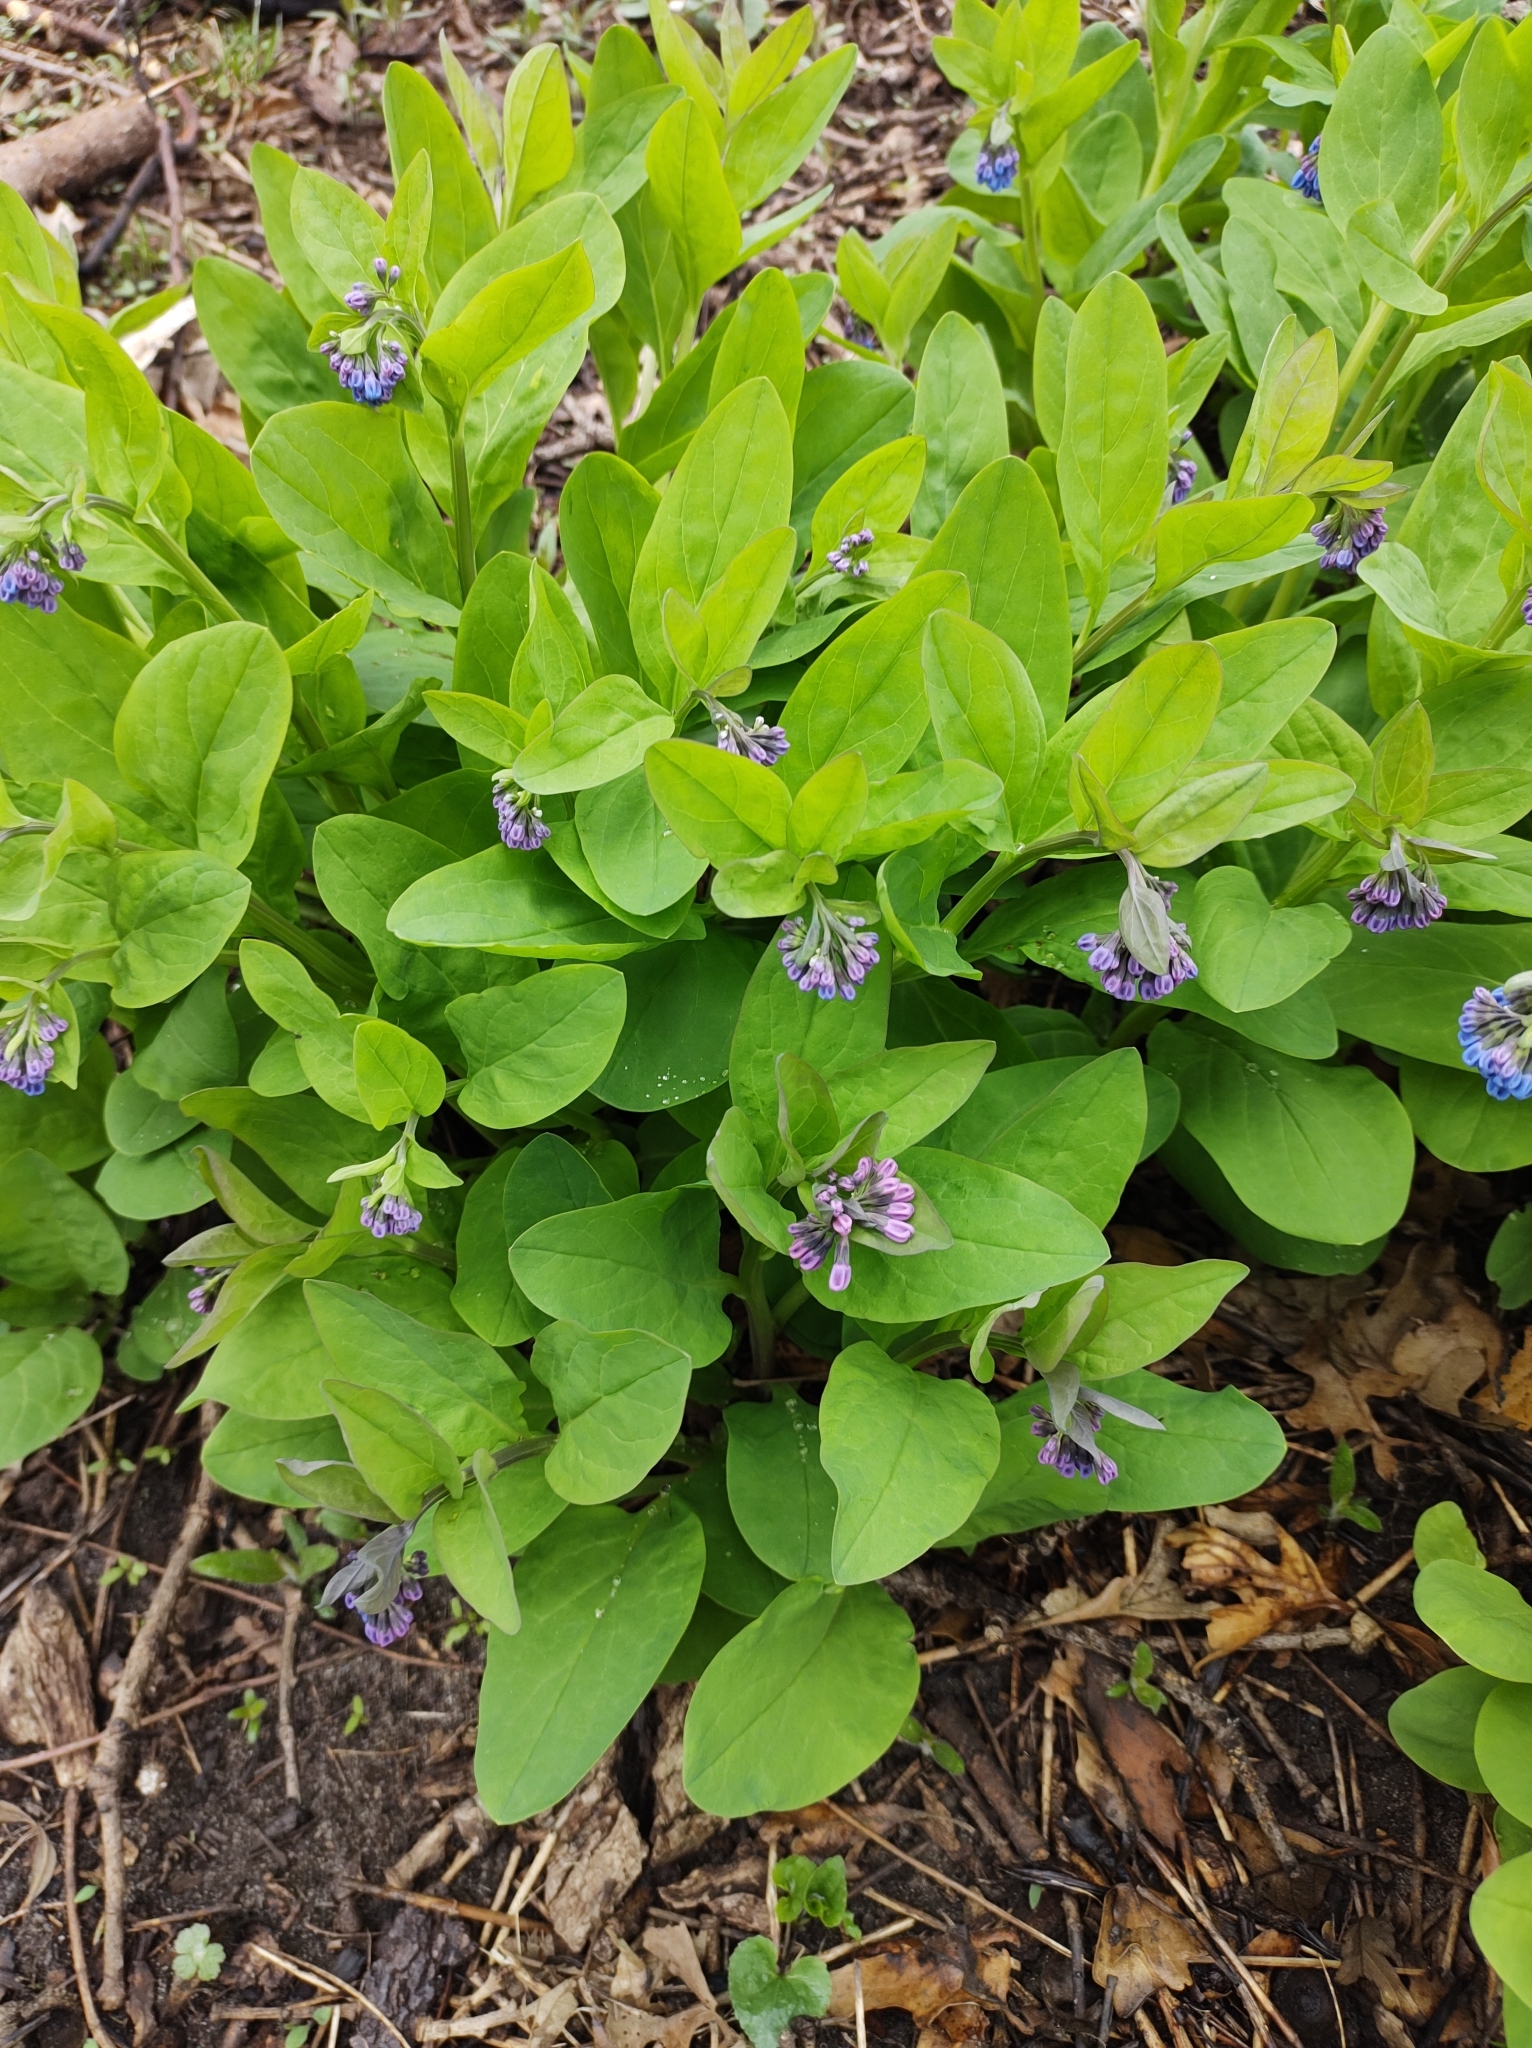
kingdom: Plantae
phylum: Tracheophyta
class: Magnoliopsida
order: Boraginales
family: Boraginaceae
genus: Mertensia
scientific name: Mertensia virginica
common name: Virginia bluebells
